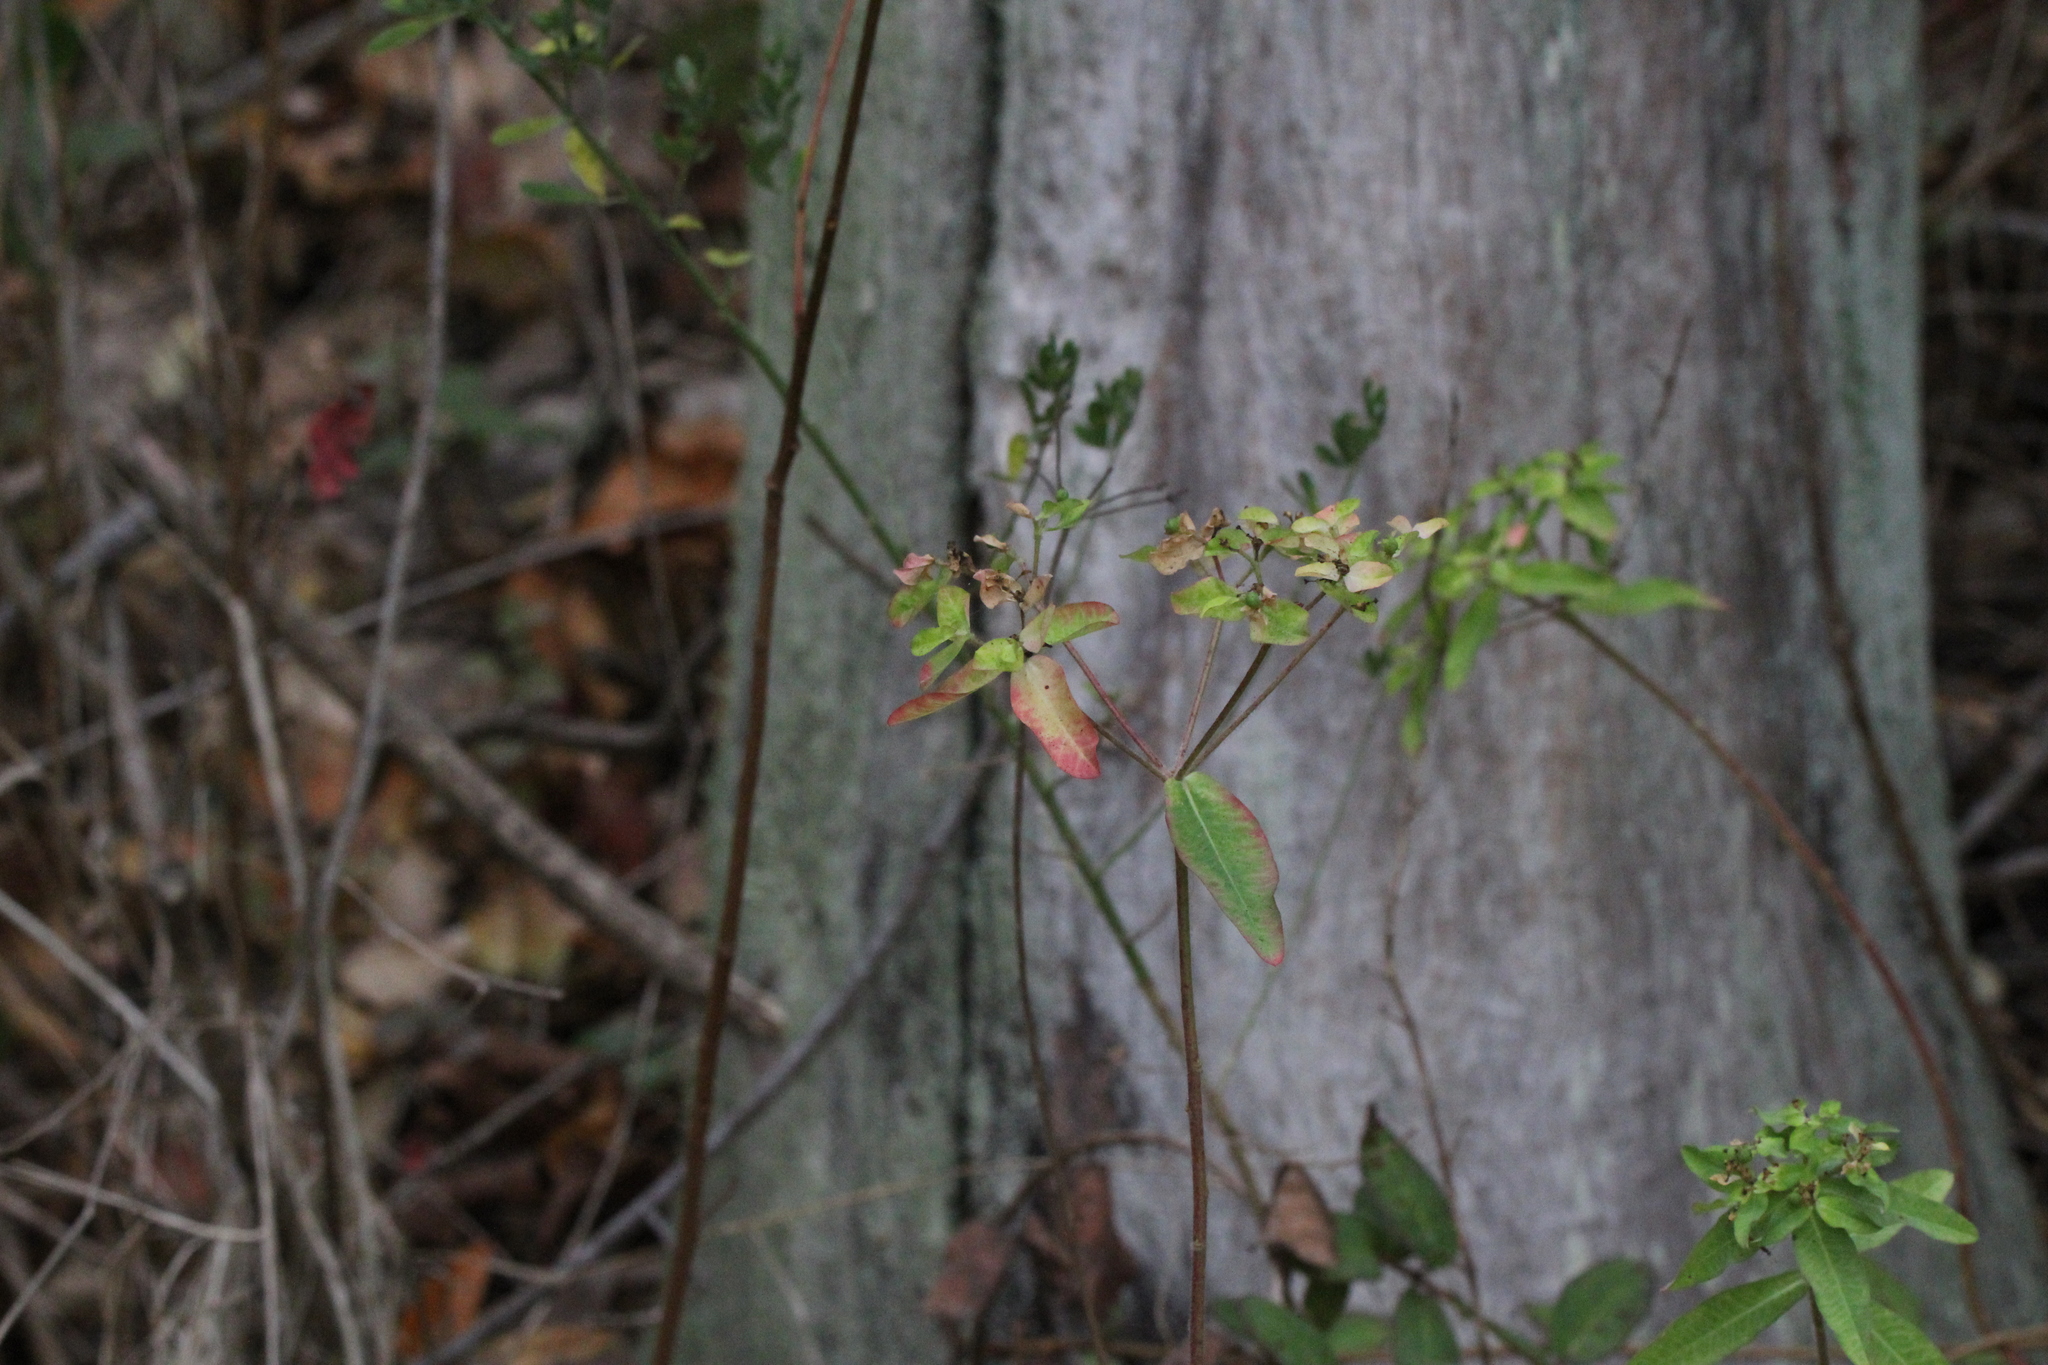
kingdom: Plantae
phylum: Tracheophyta
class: Magnoliopsida
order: Sapindales
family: Anacardiaceae
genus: Toxicodendron
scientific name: Toxicodendron diversilobum
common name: Pacific poison-oak
